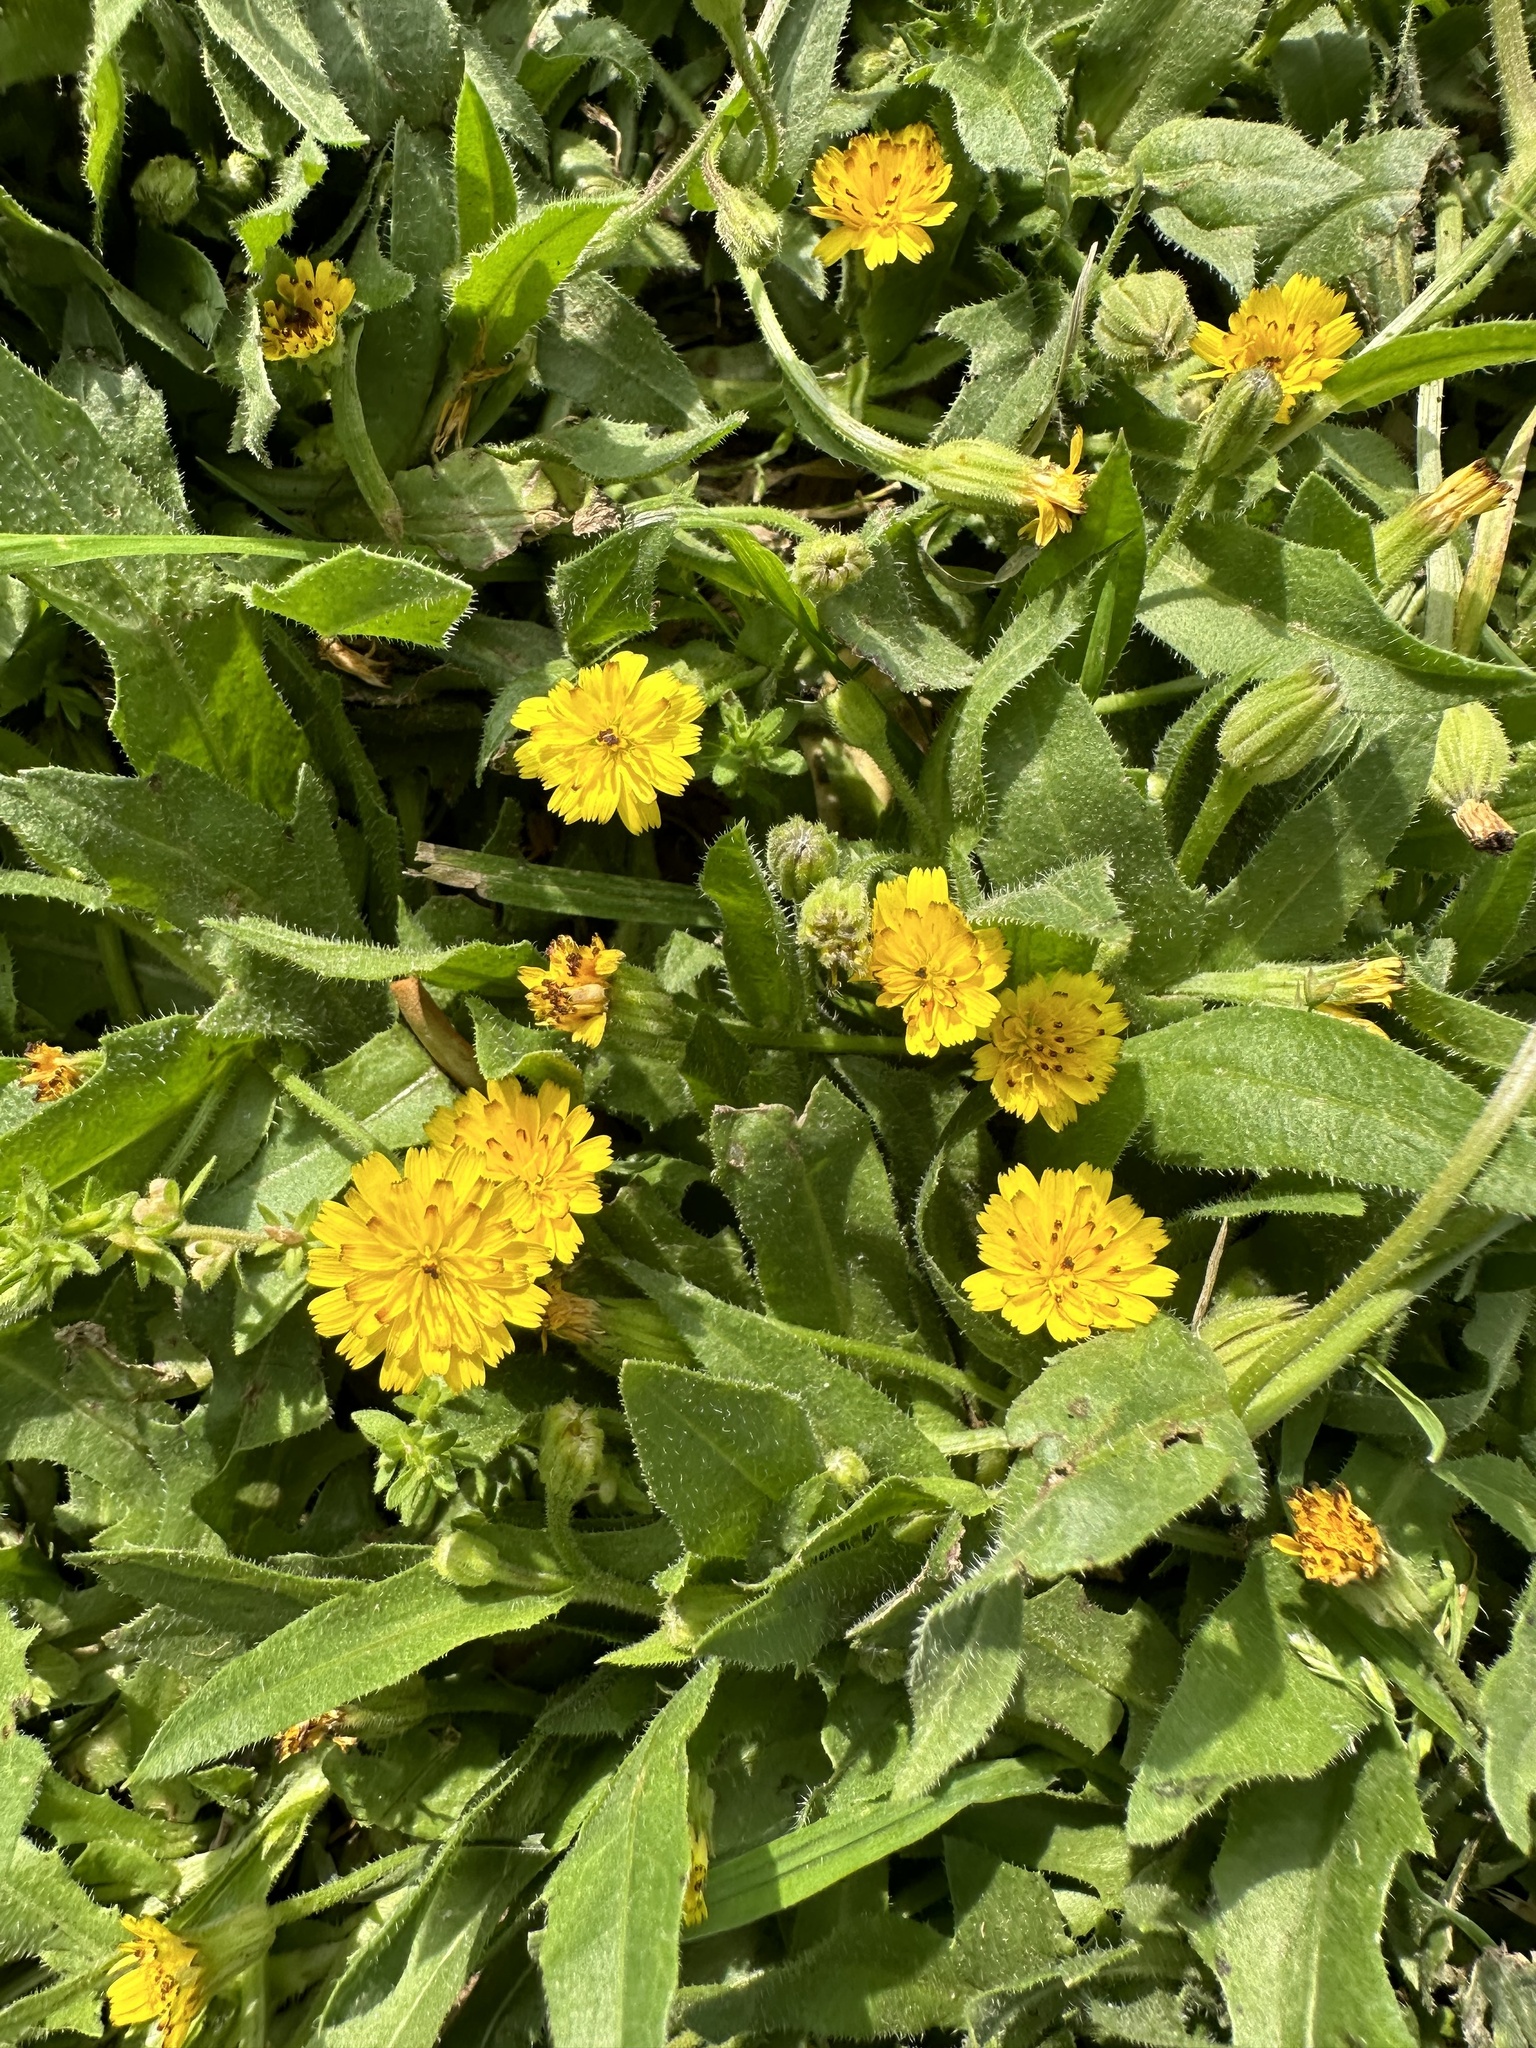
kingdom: Plantae
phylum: Tracheophyta
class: Magnoliopsida
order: Asterales
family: Asteraceae
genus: Hedypnois
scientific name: Hedypnois rhagadioloides
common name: Cretan weed
